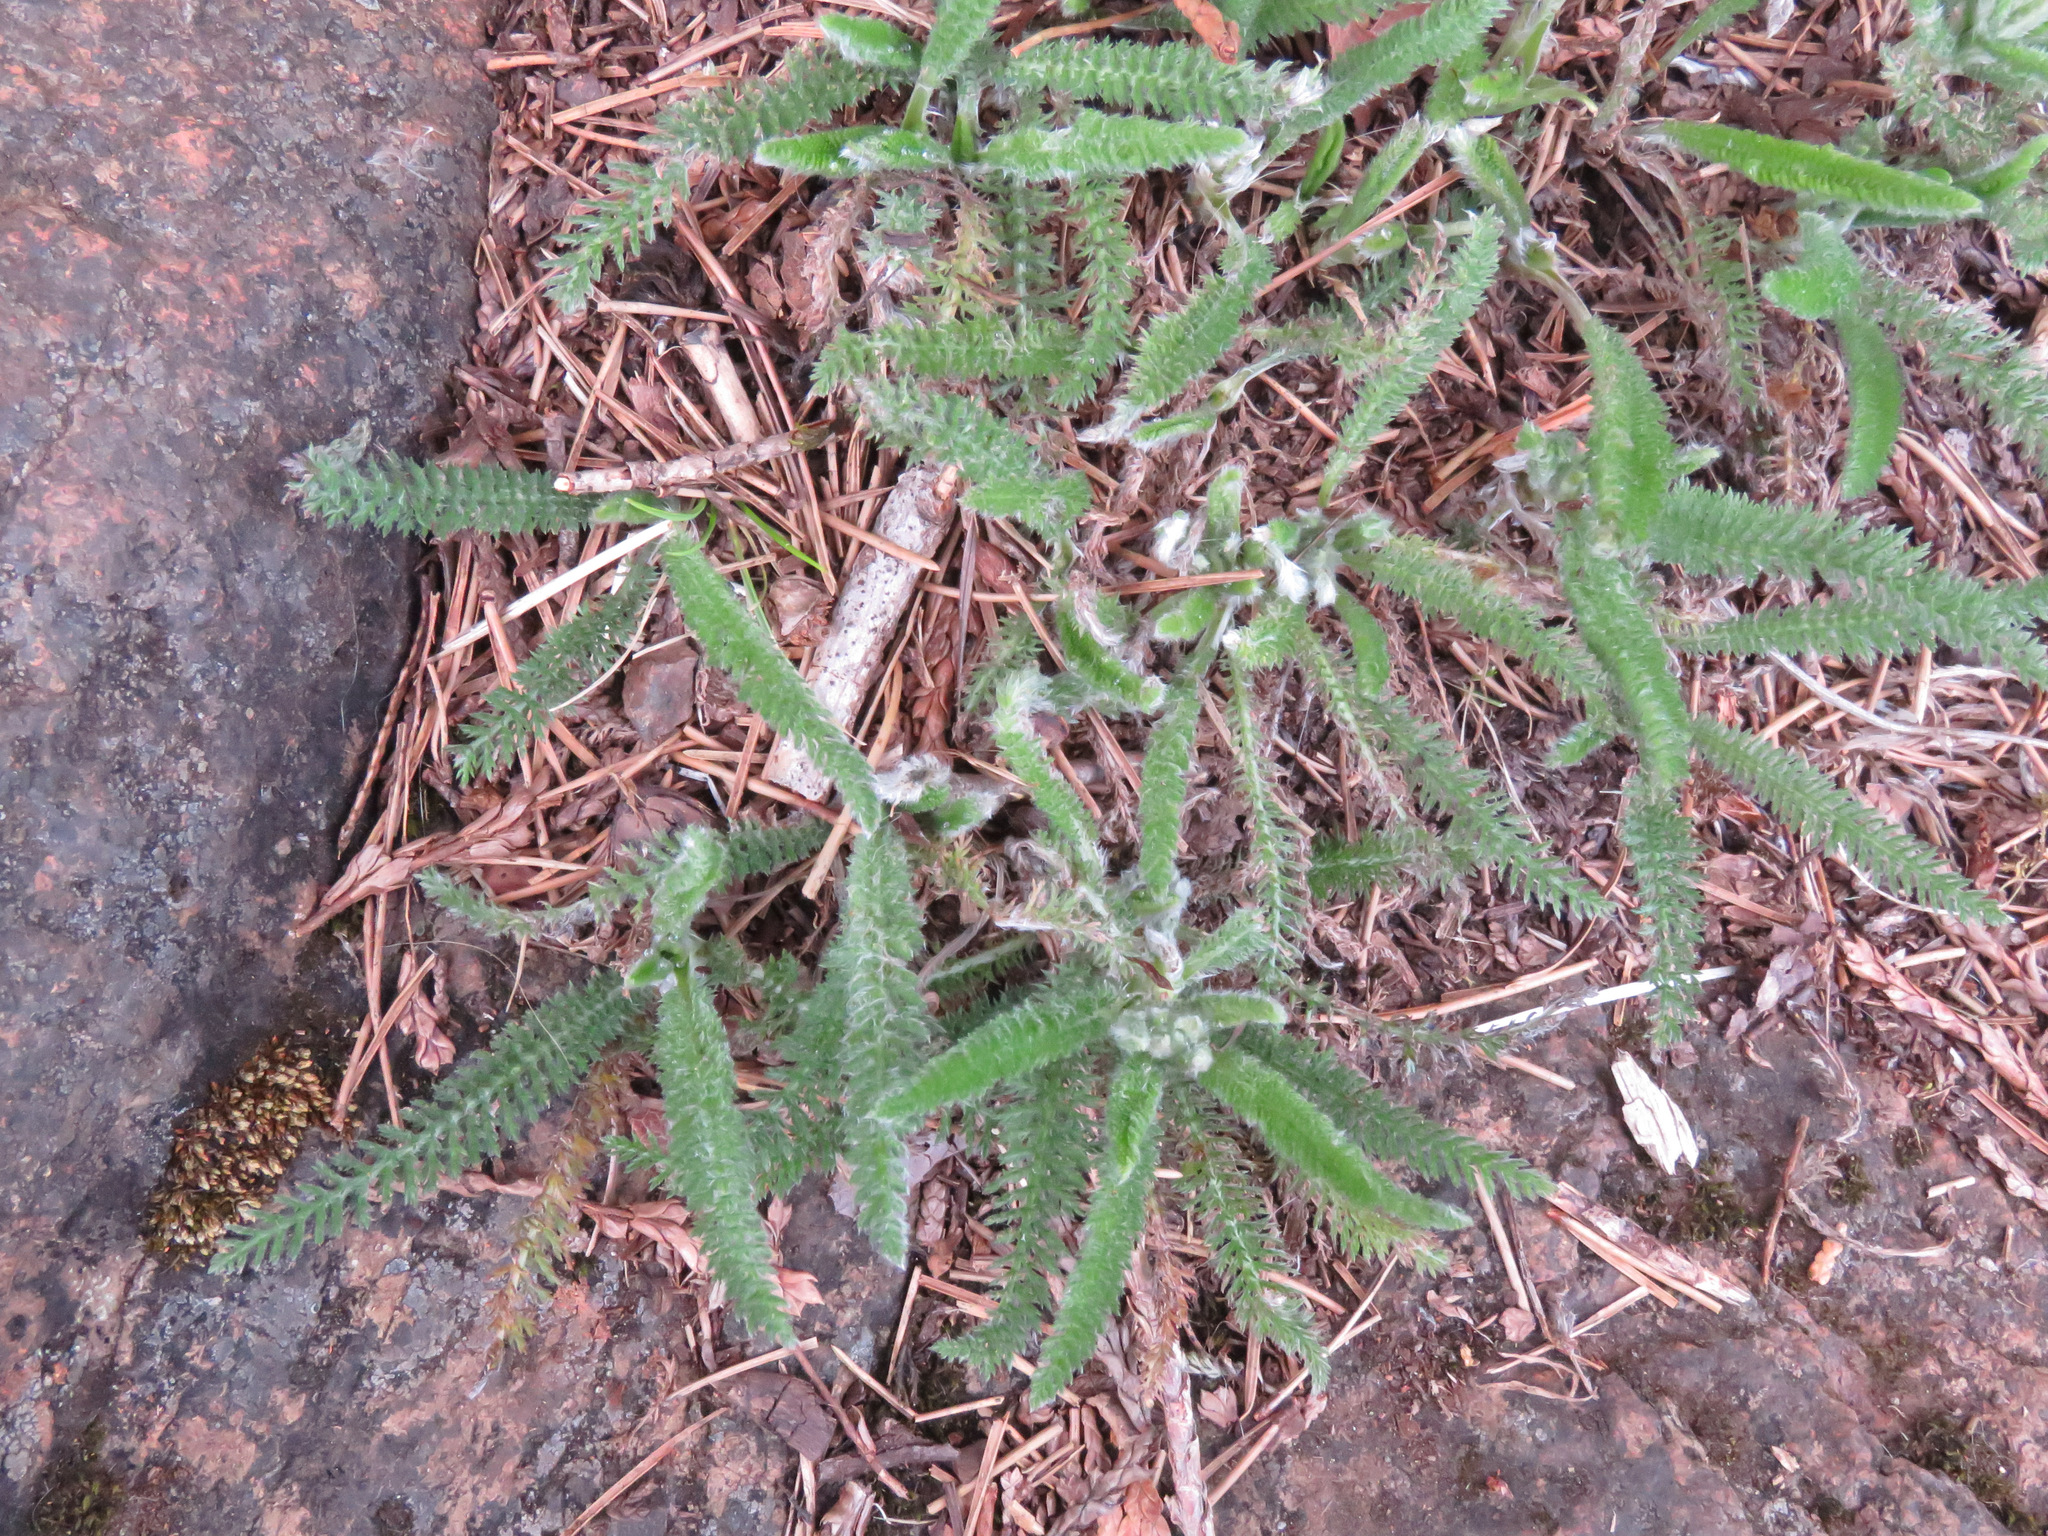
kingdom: Plantae
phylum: Tracheophyta
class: Magnoliopsida
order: Asterales
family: Asteraceae
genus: Achillea
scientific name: Achillea millefolium
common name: Yarrow
